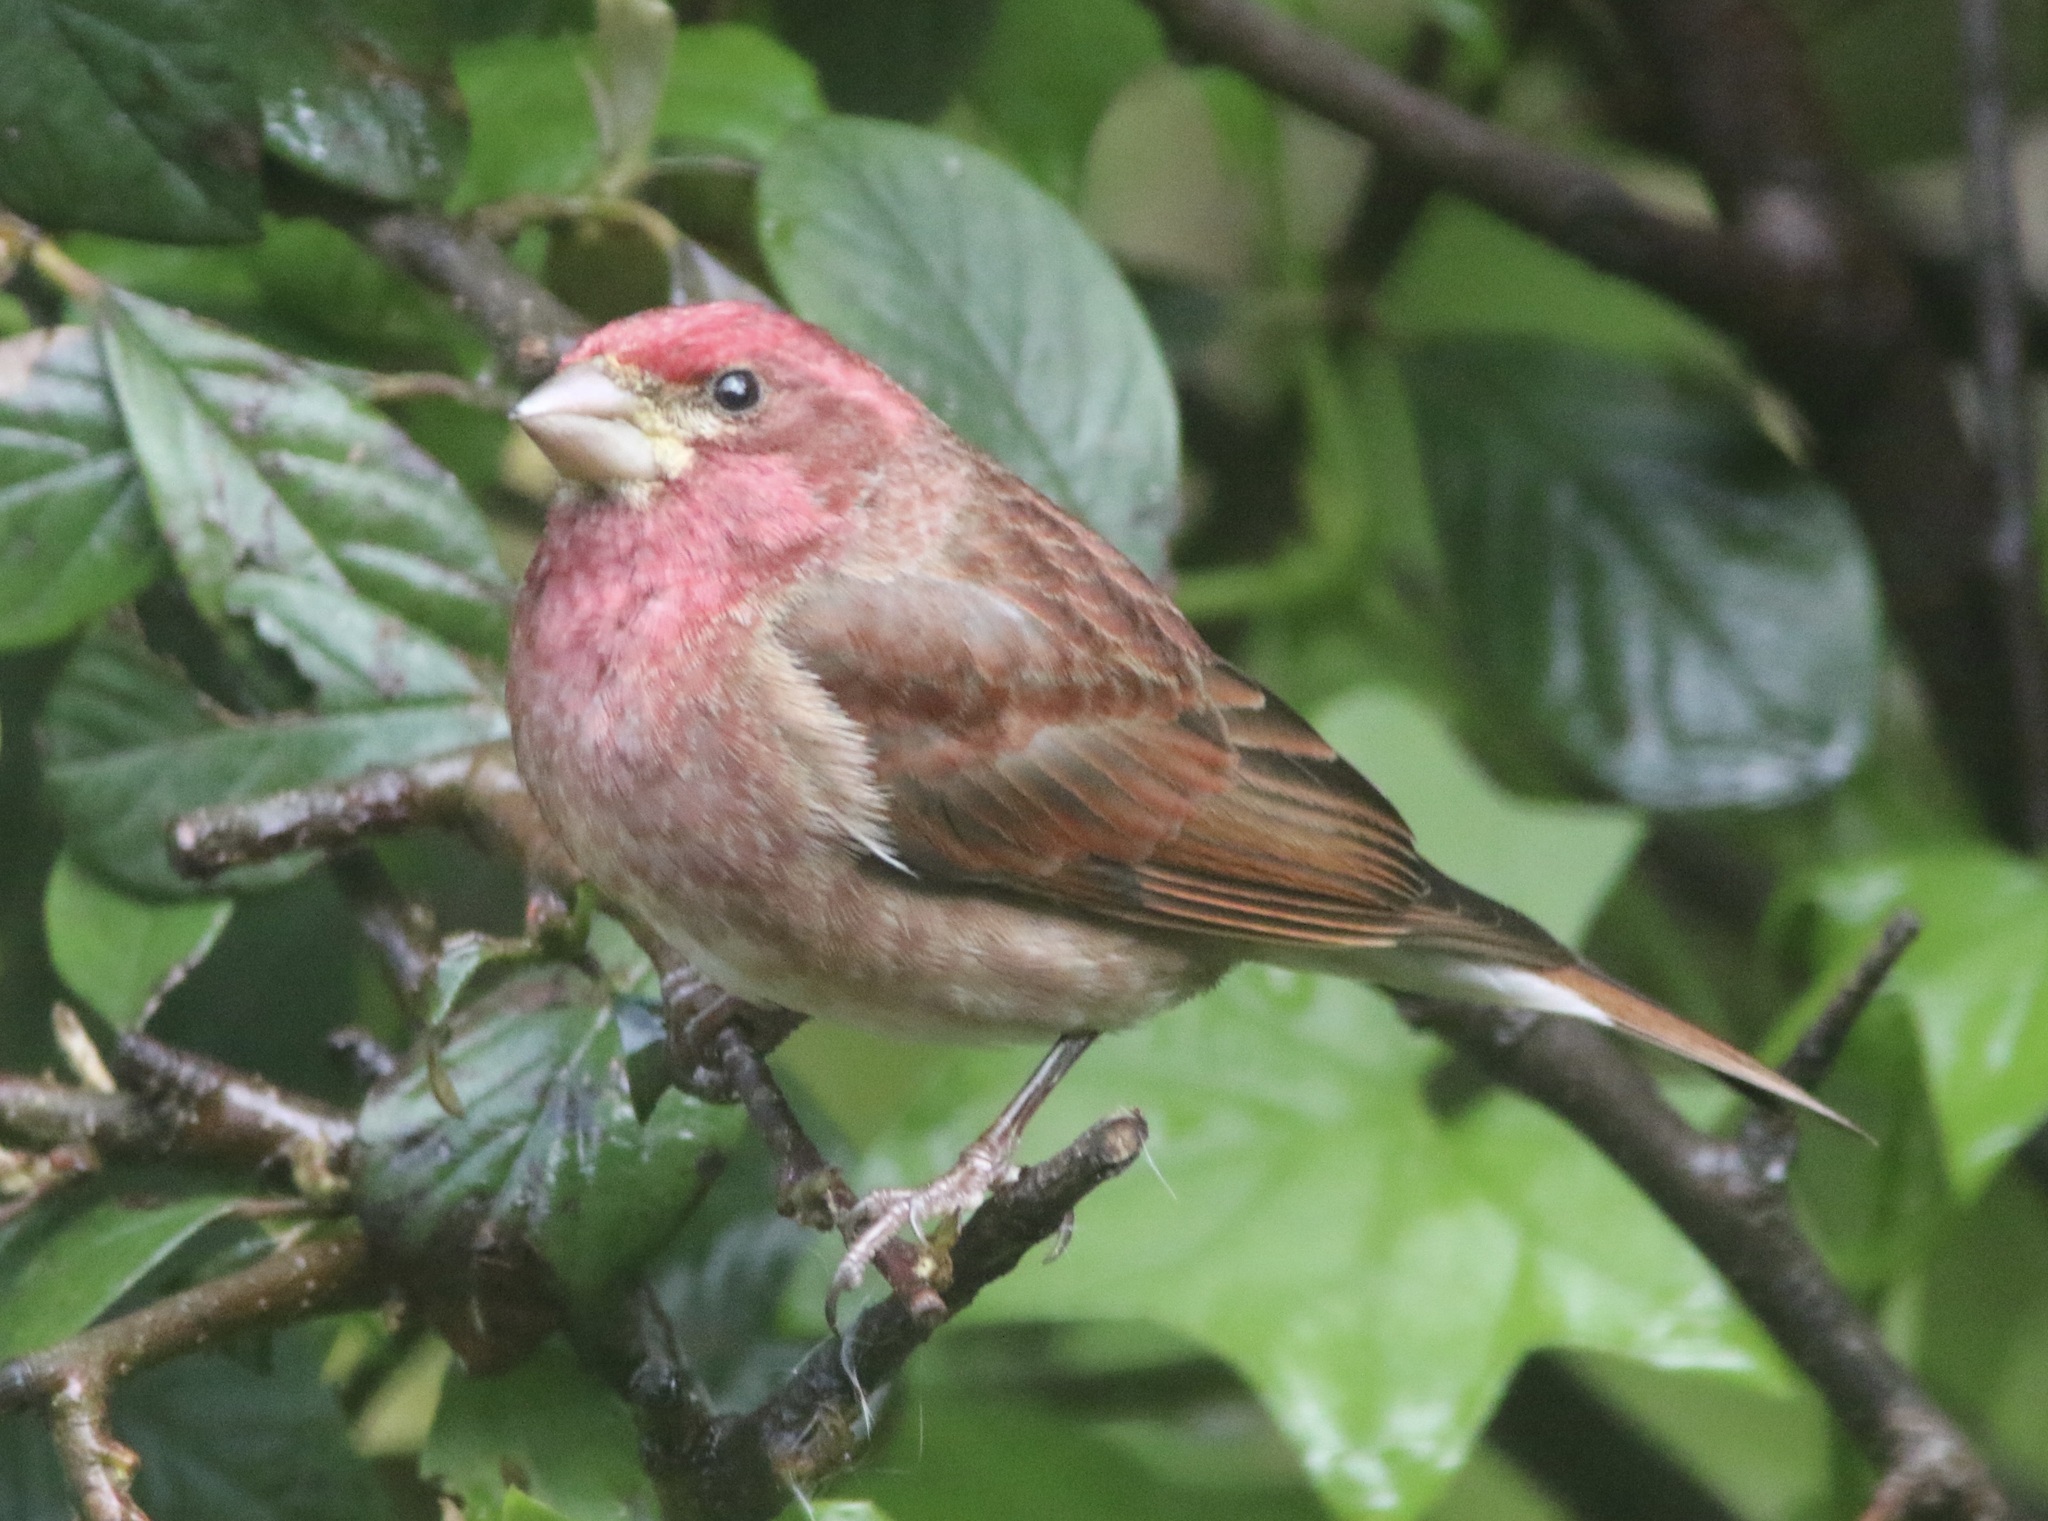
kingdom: Animalia
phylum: Chordata
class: Aves
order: Passeriformes
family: Fringillidae
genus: Haemorhous
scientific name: Haemorhous purpureus
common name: Purple finch
